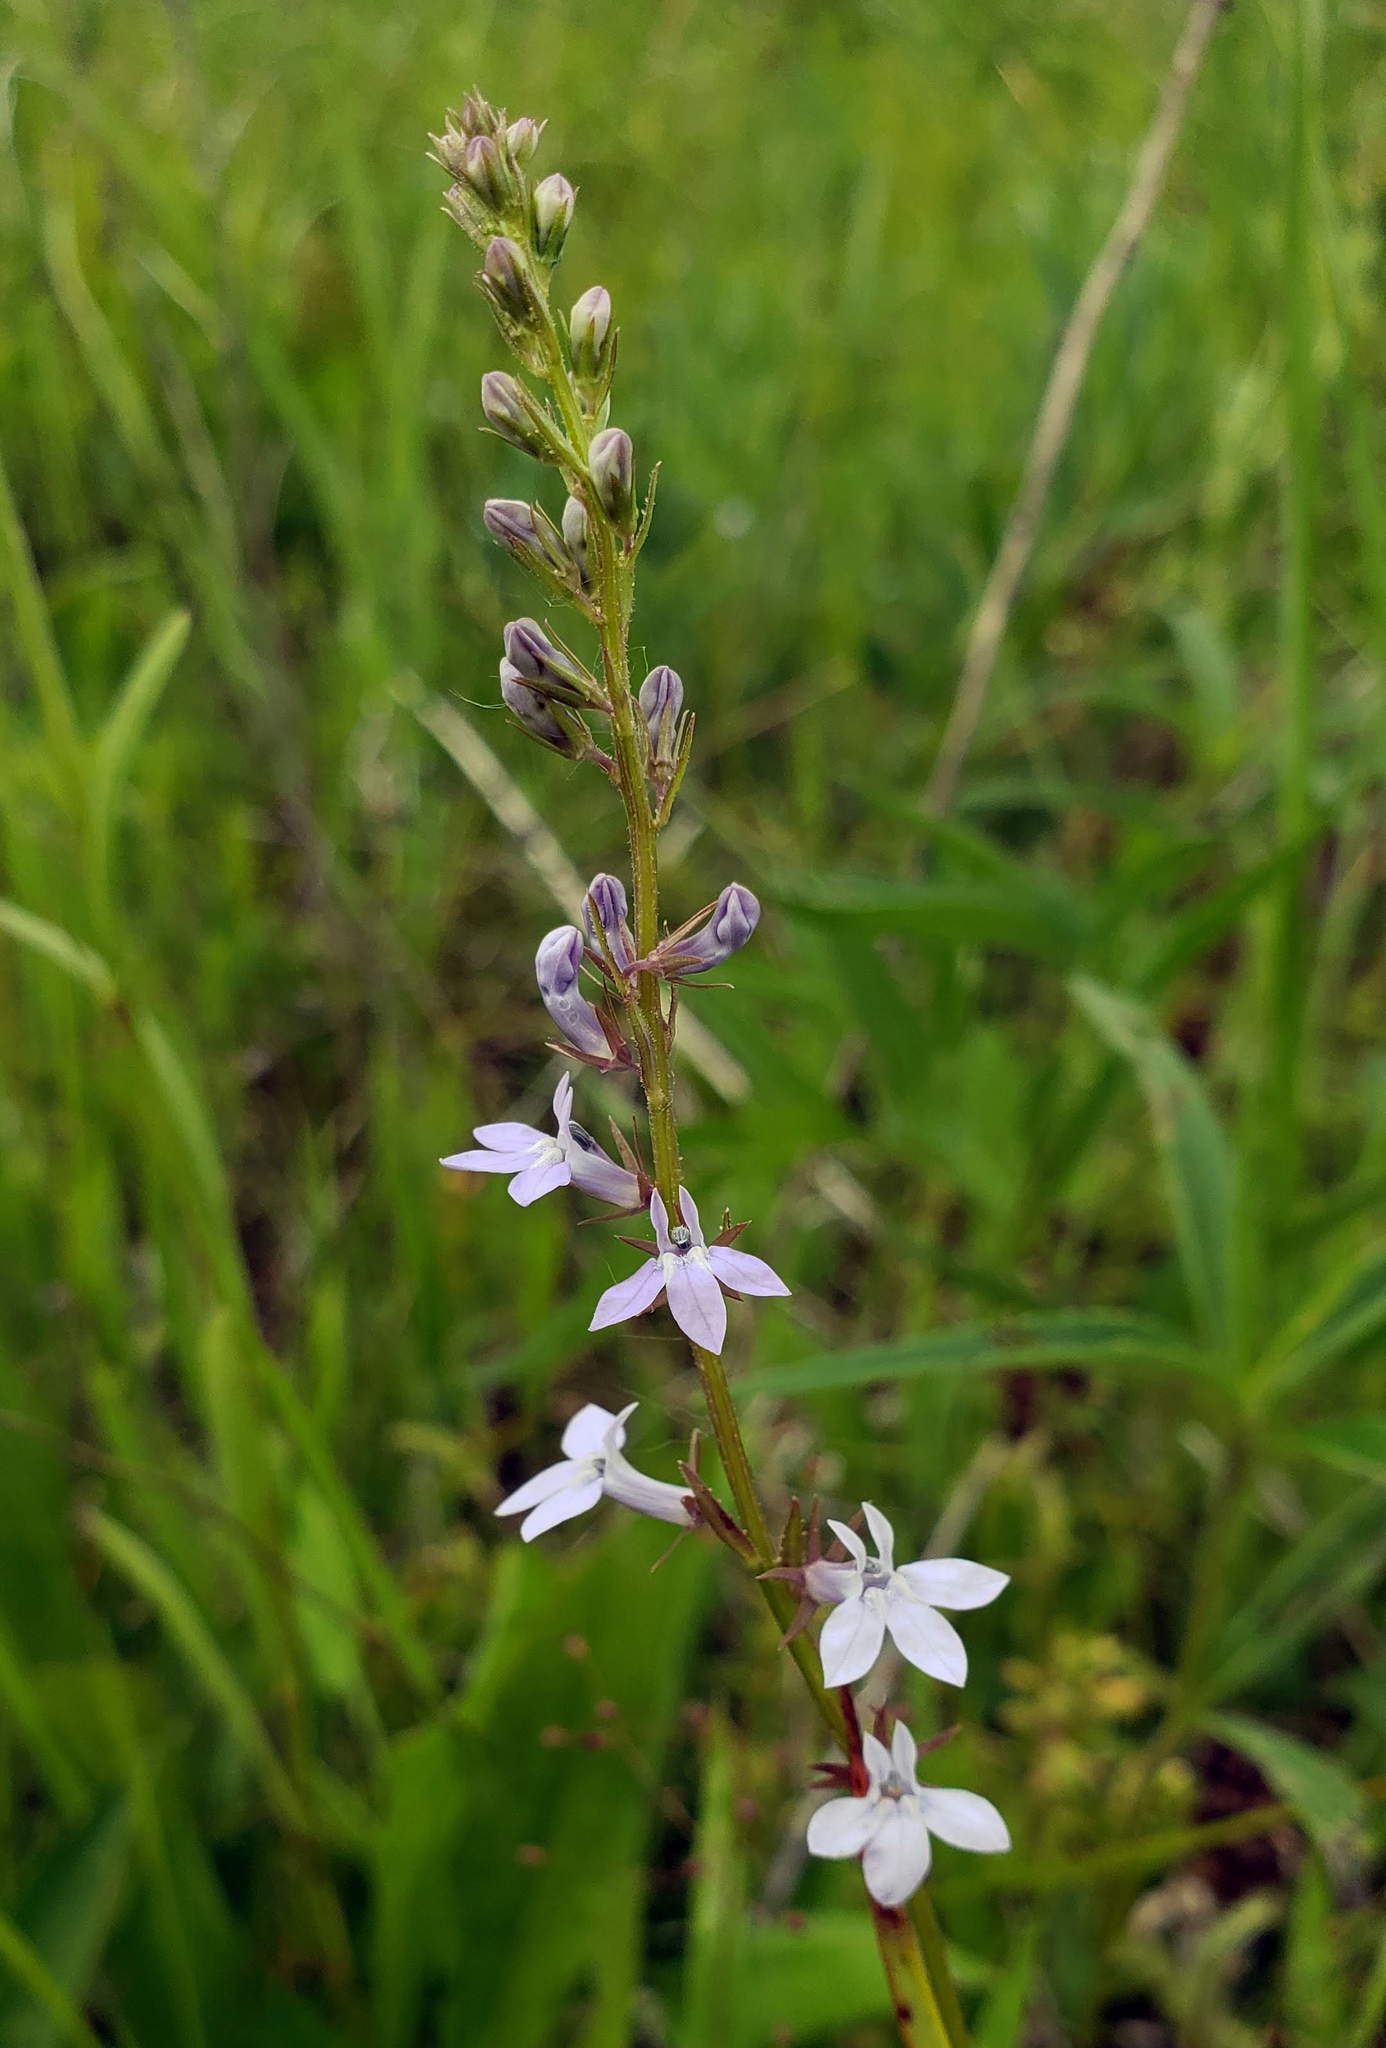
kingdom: Plantae
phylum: Tracheophyta
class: Magnoliopsida
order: Asterales
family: Campanulaceae
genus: Lobelia
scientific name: Lobelia spicata
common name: Pale-spike lobelia
